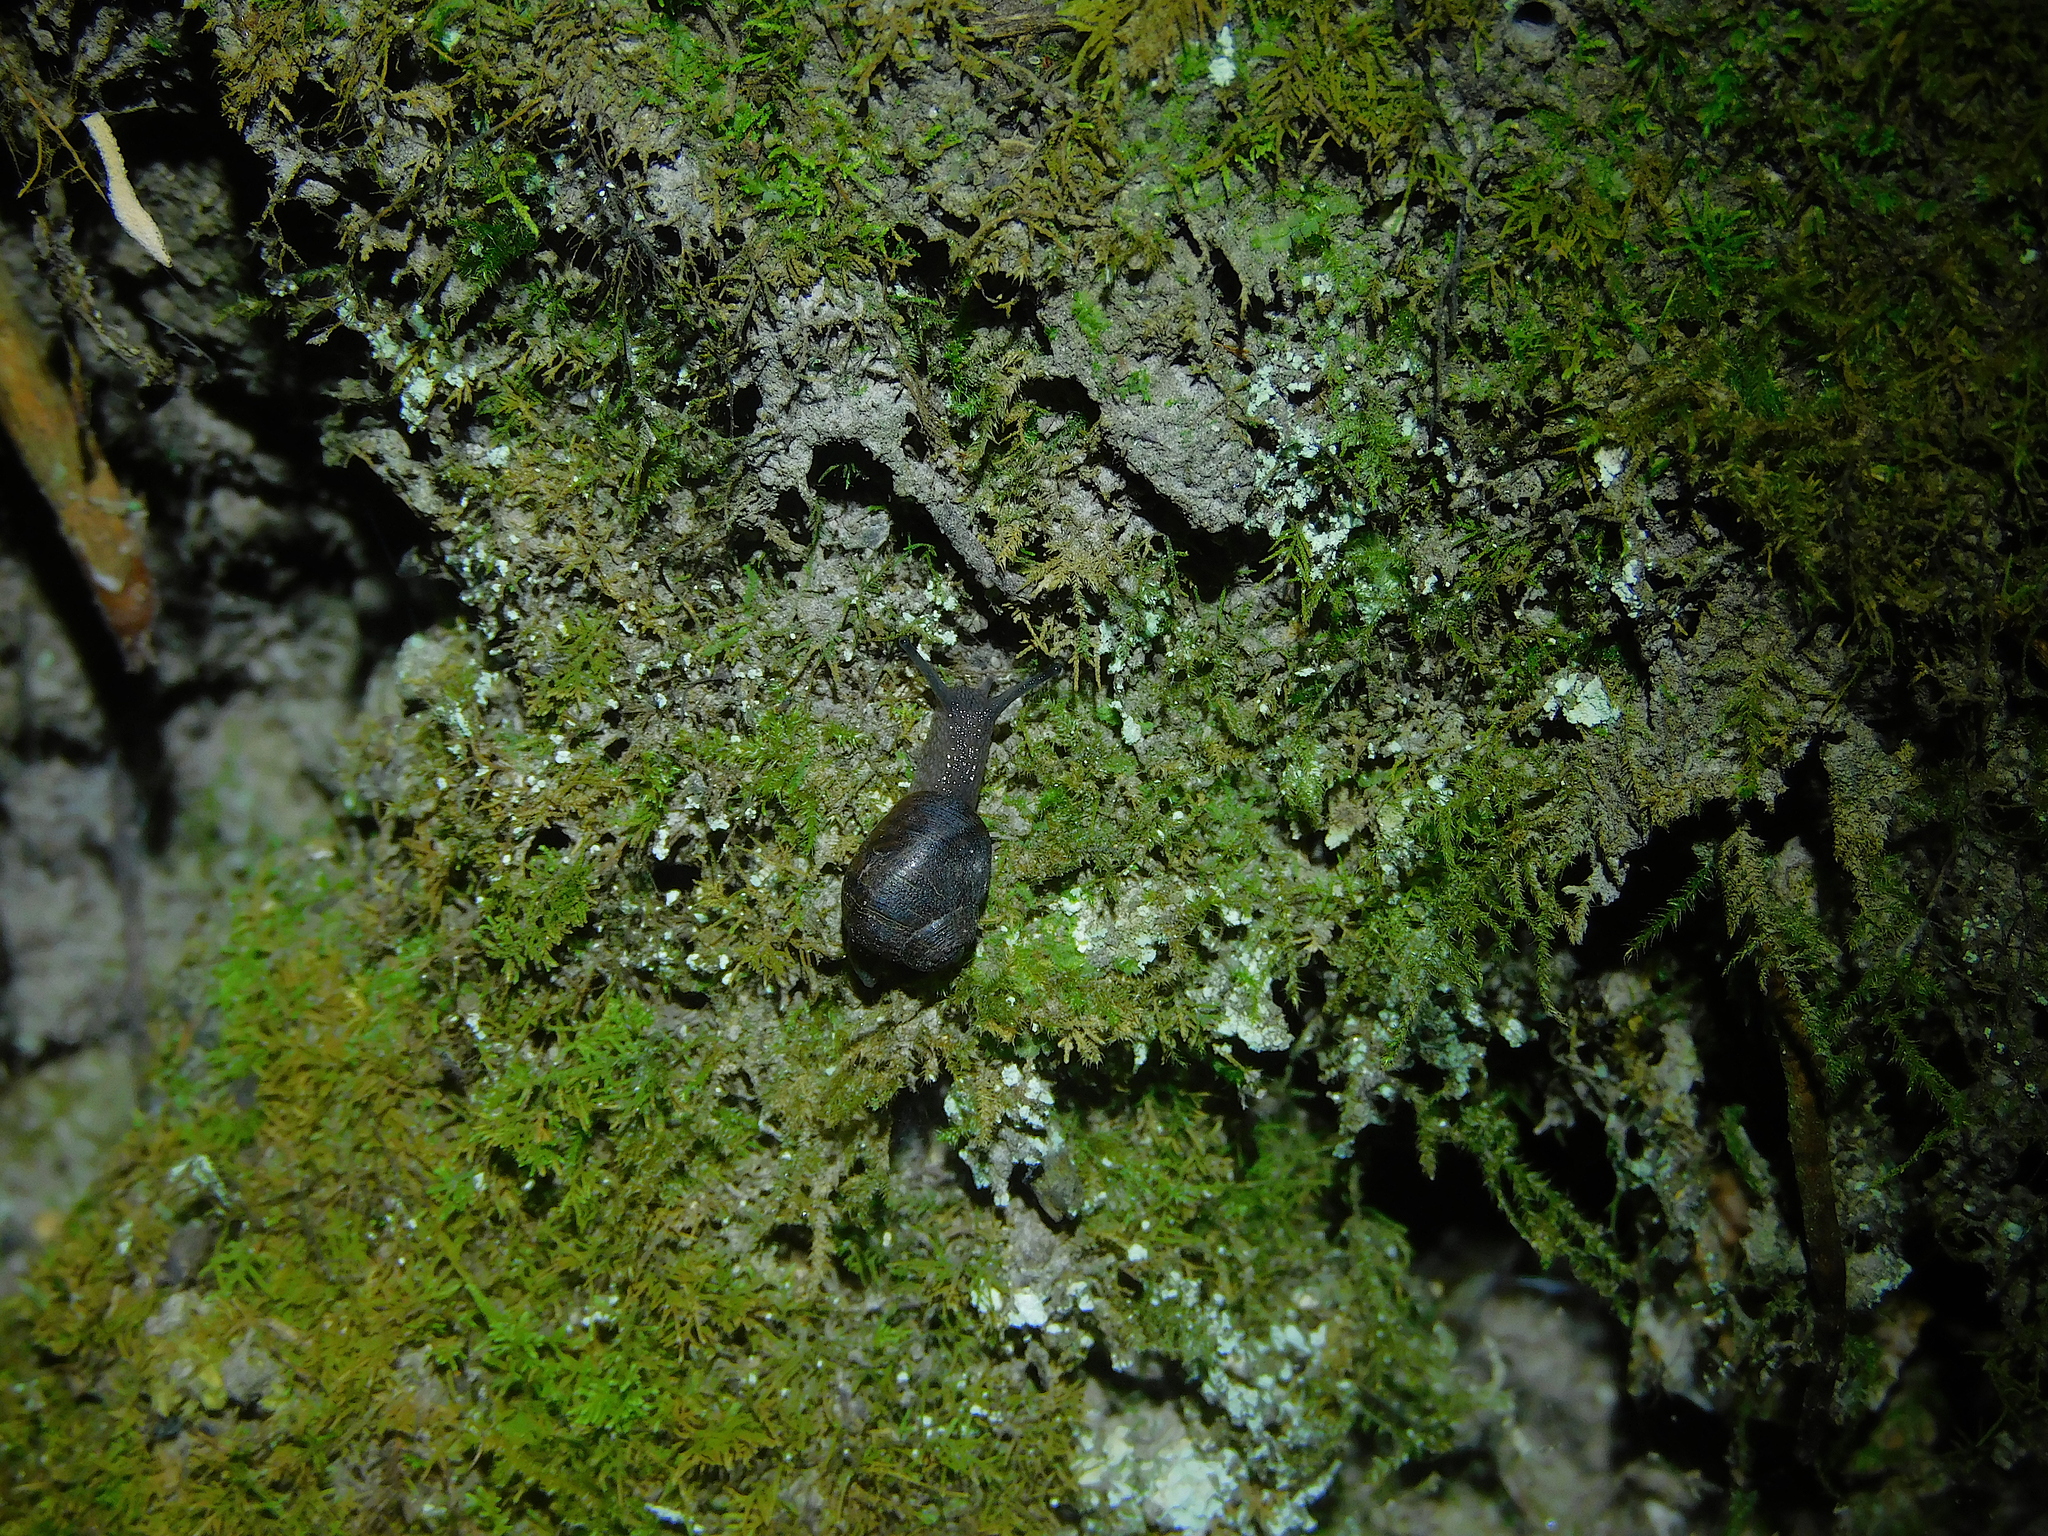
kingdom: Animalia
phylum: Mollusca
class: Gastropoda
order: Stylommatophora
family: Caryodidae
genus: Caryodes
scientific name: Caryodes dufresnii
